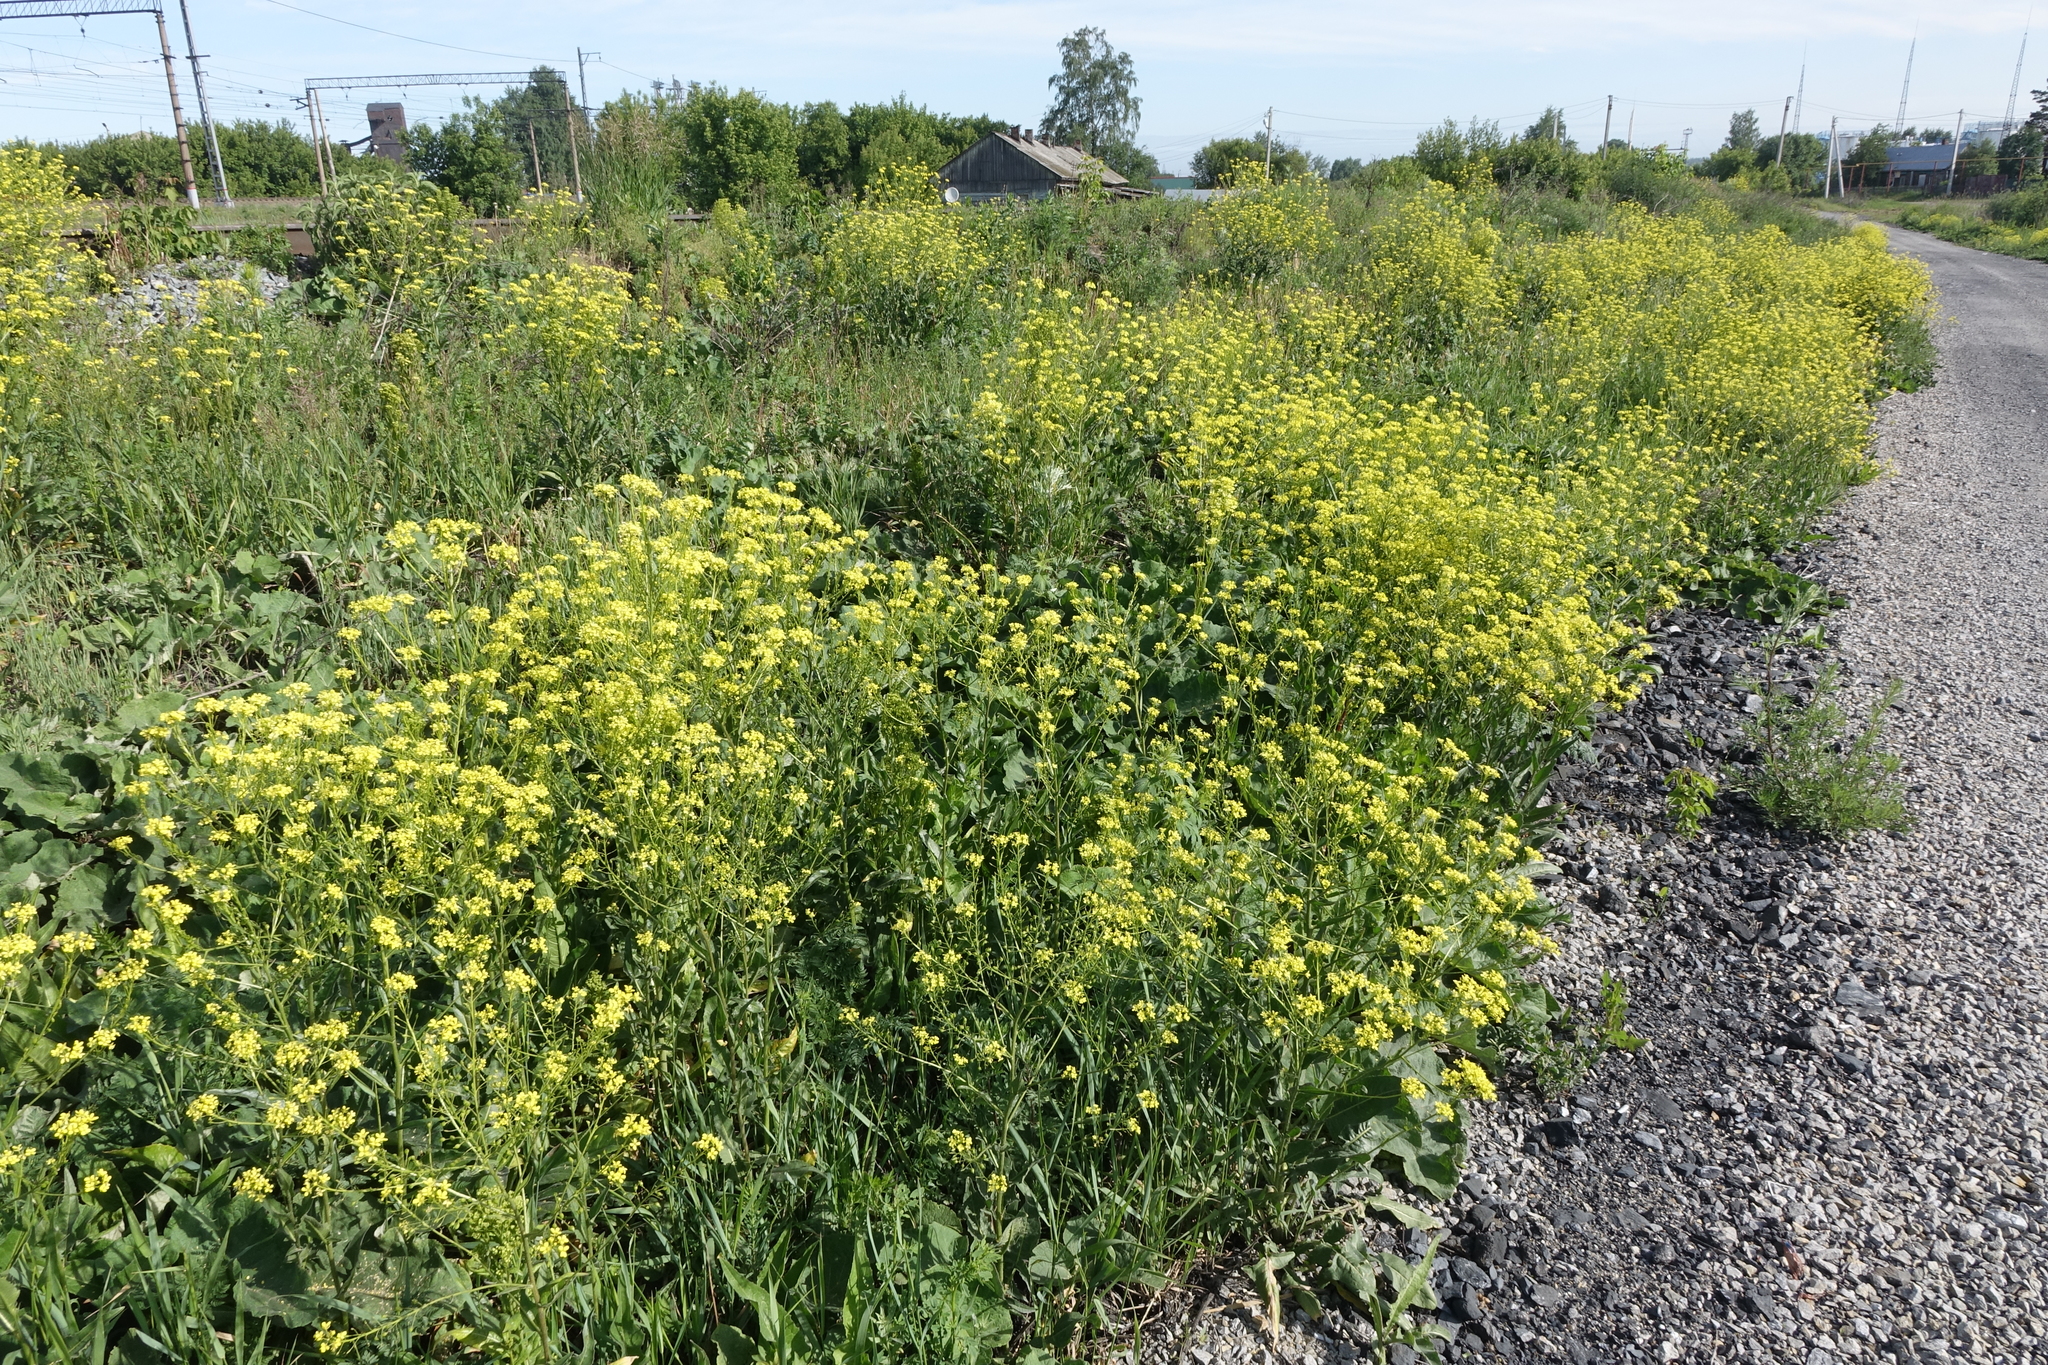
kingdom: Plantae
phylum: Tracheophyta
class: Magnoliopsida
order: Brassicales
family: Brassicaceae
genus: Bunias
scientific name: Bunias orientalis
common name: Warty-cabbage
